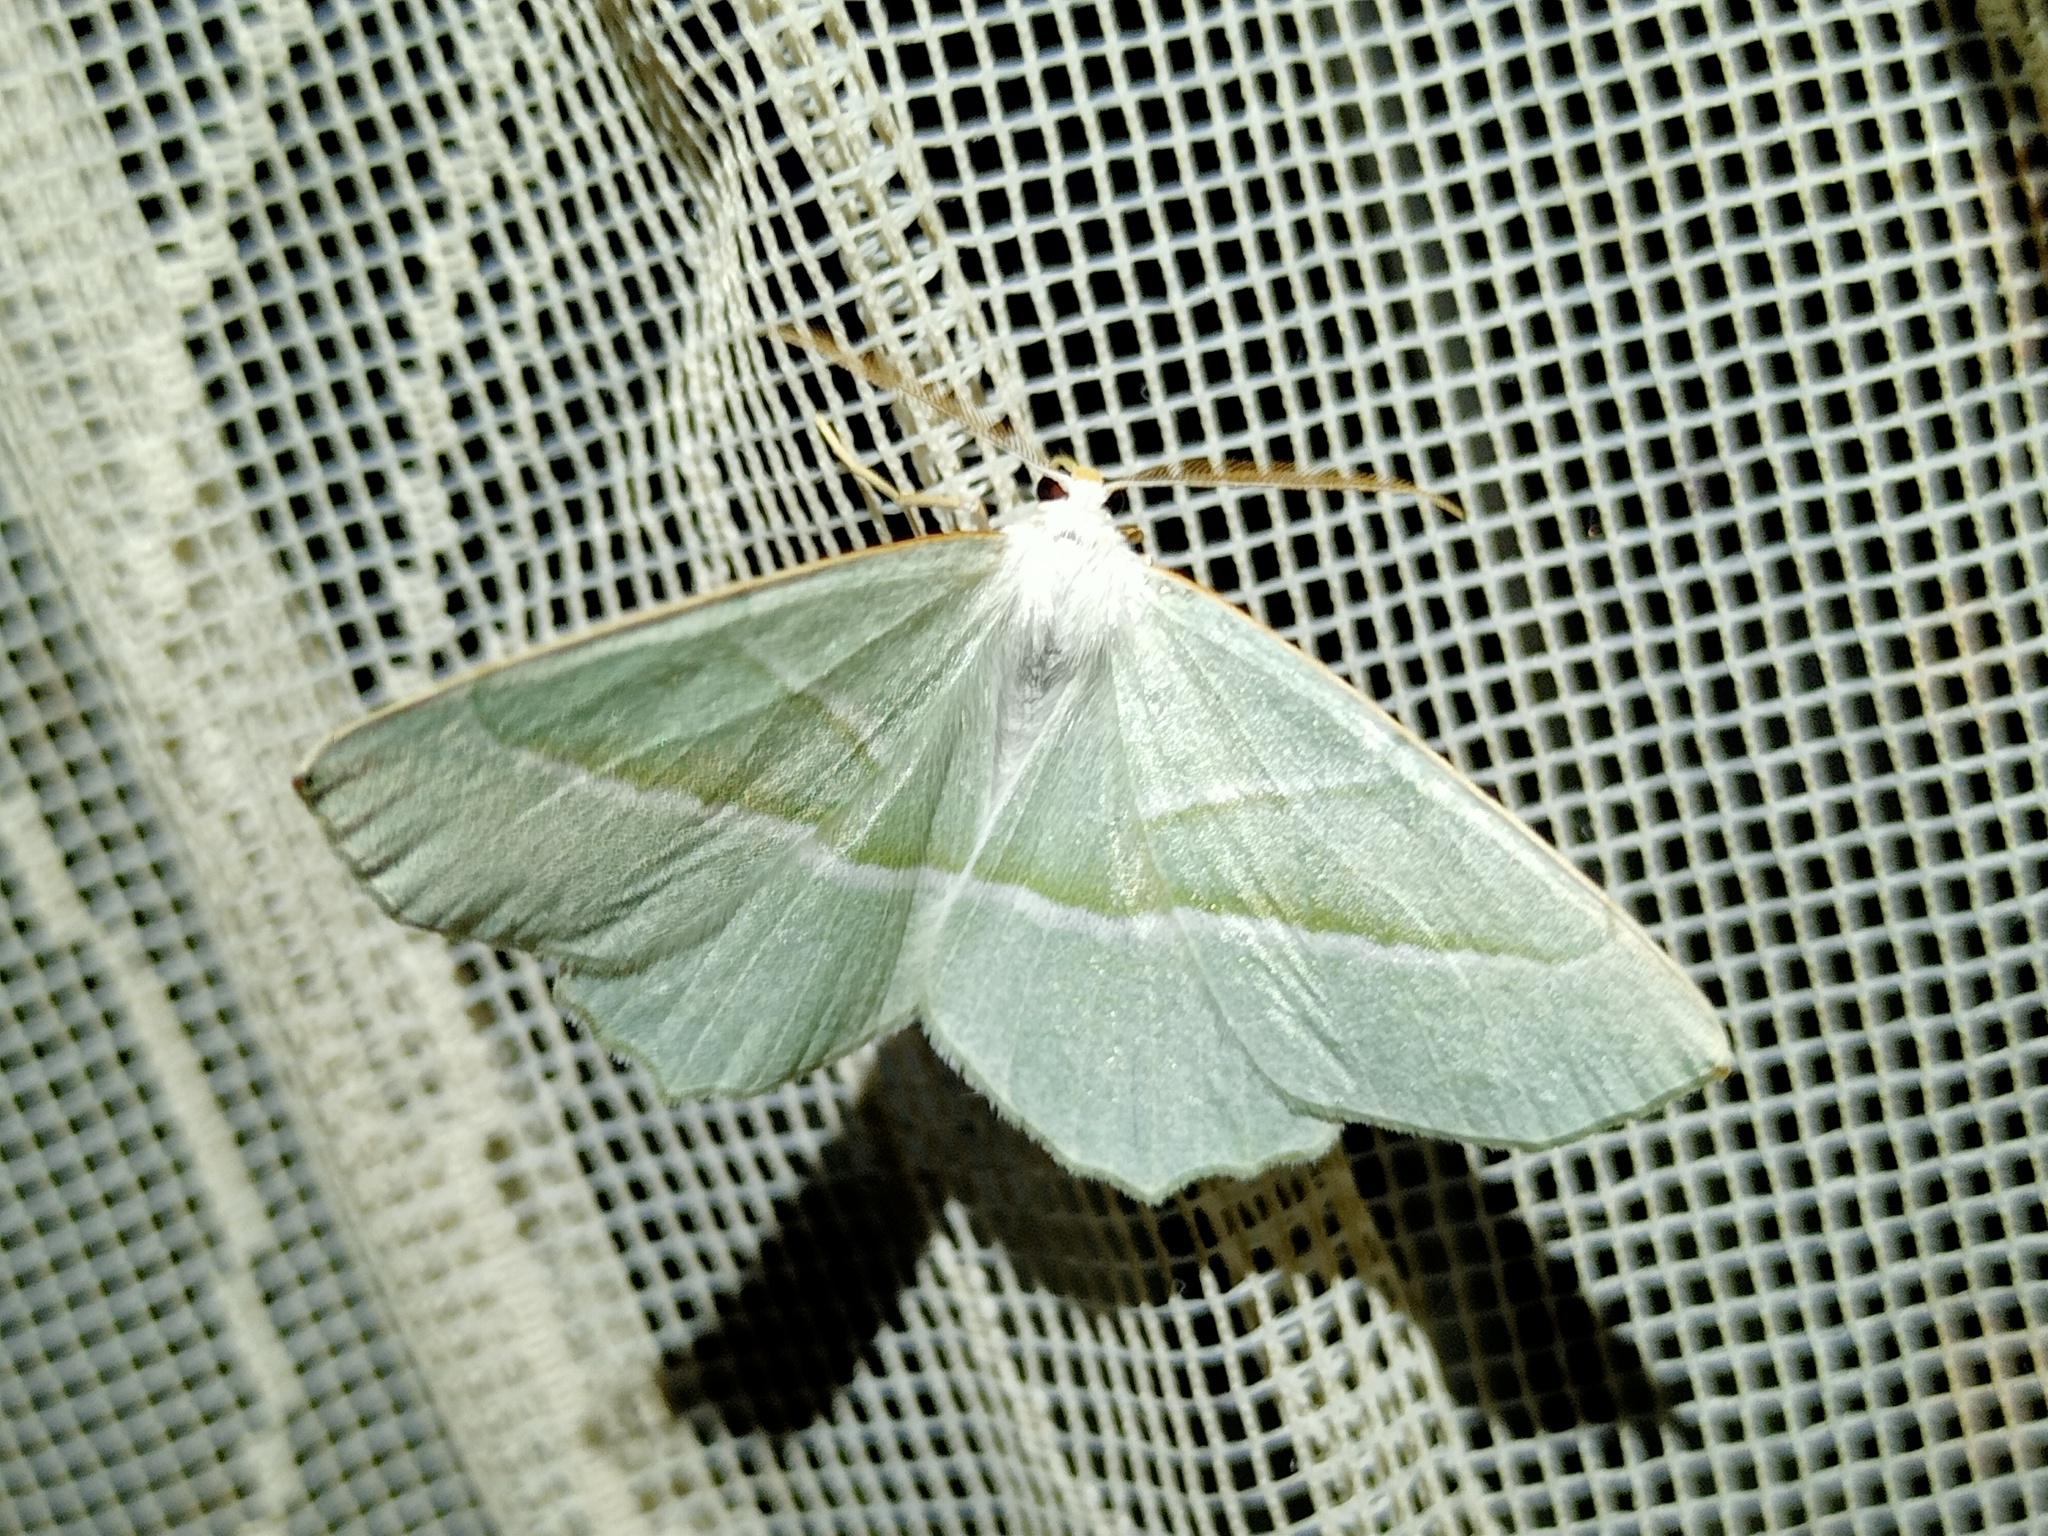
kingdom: Animalia
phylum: Arthropoda
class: Insecta
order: Lepidoptera
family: Geometridae
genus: Campaea
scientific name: Campaea margaritaria
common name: Light emerald
